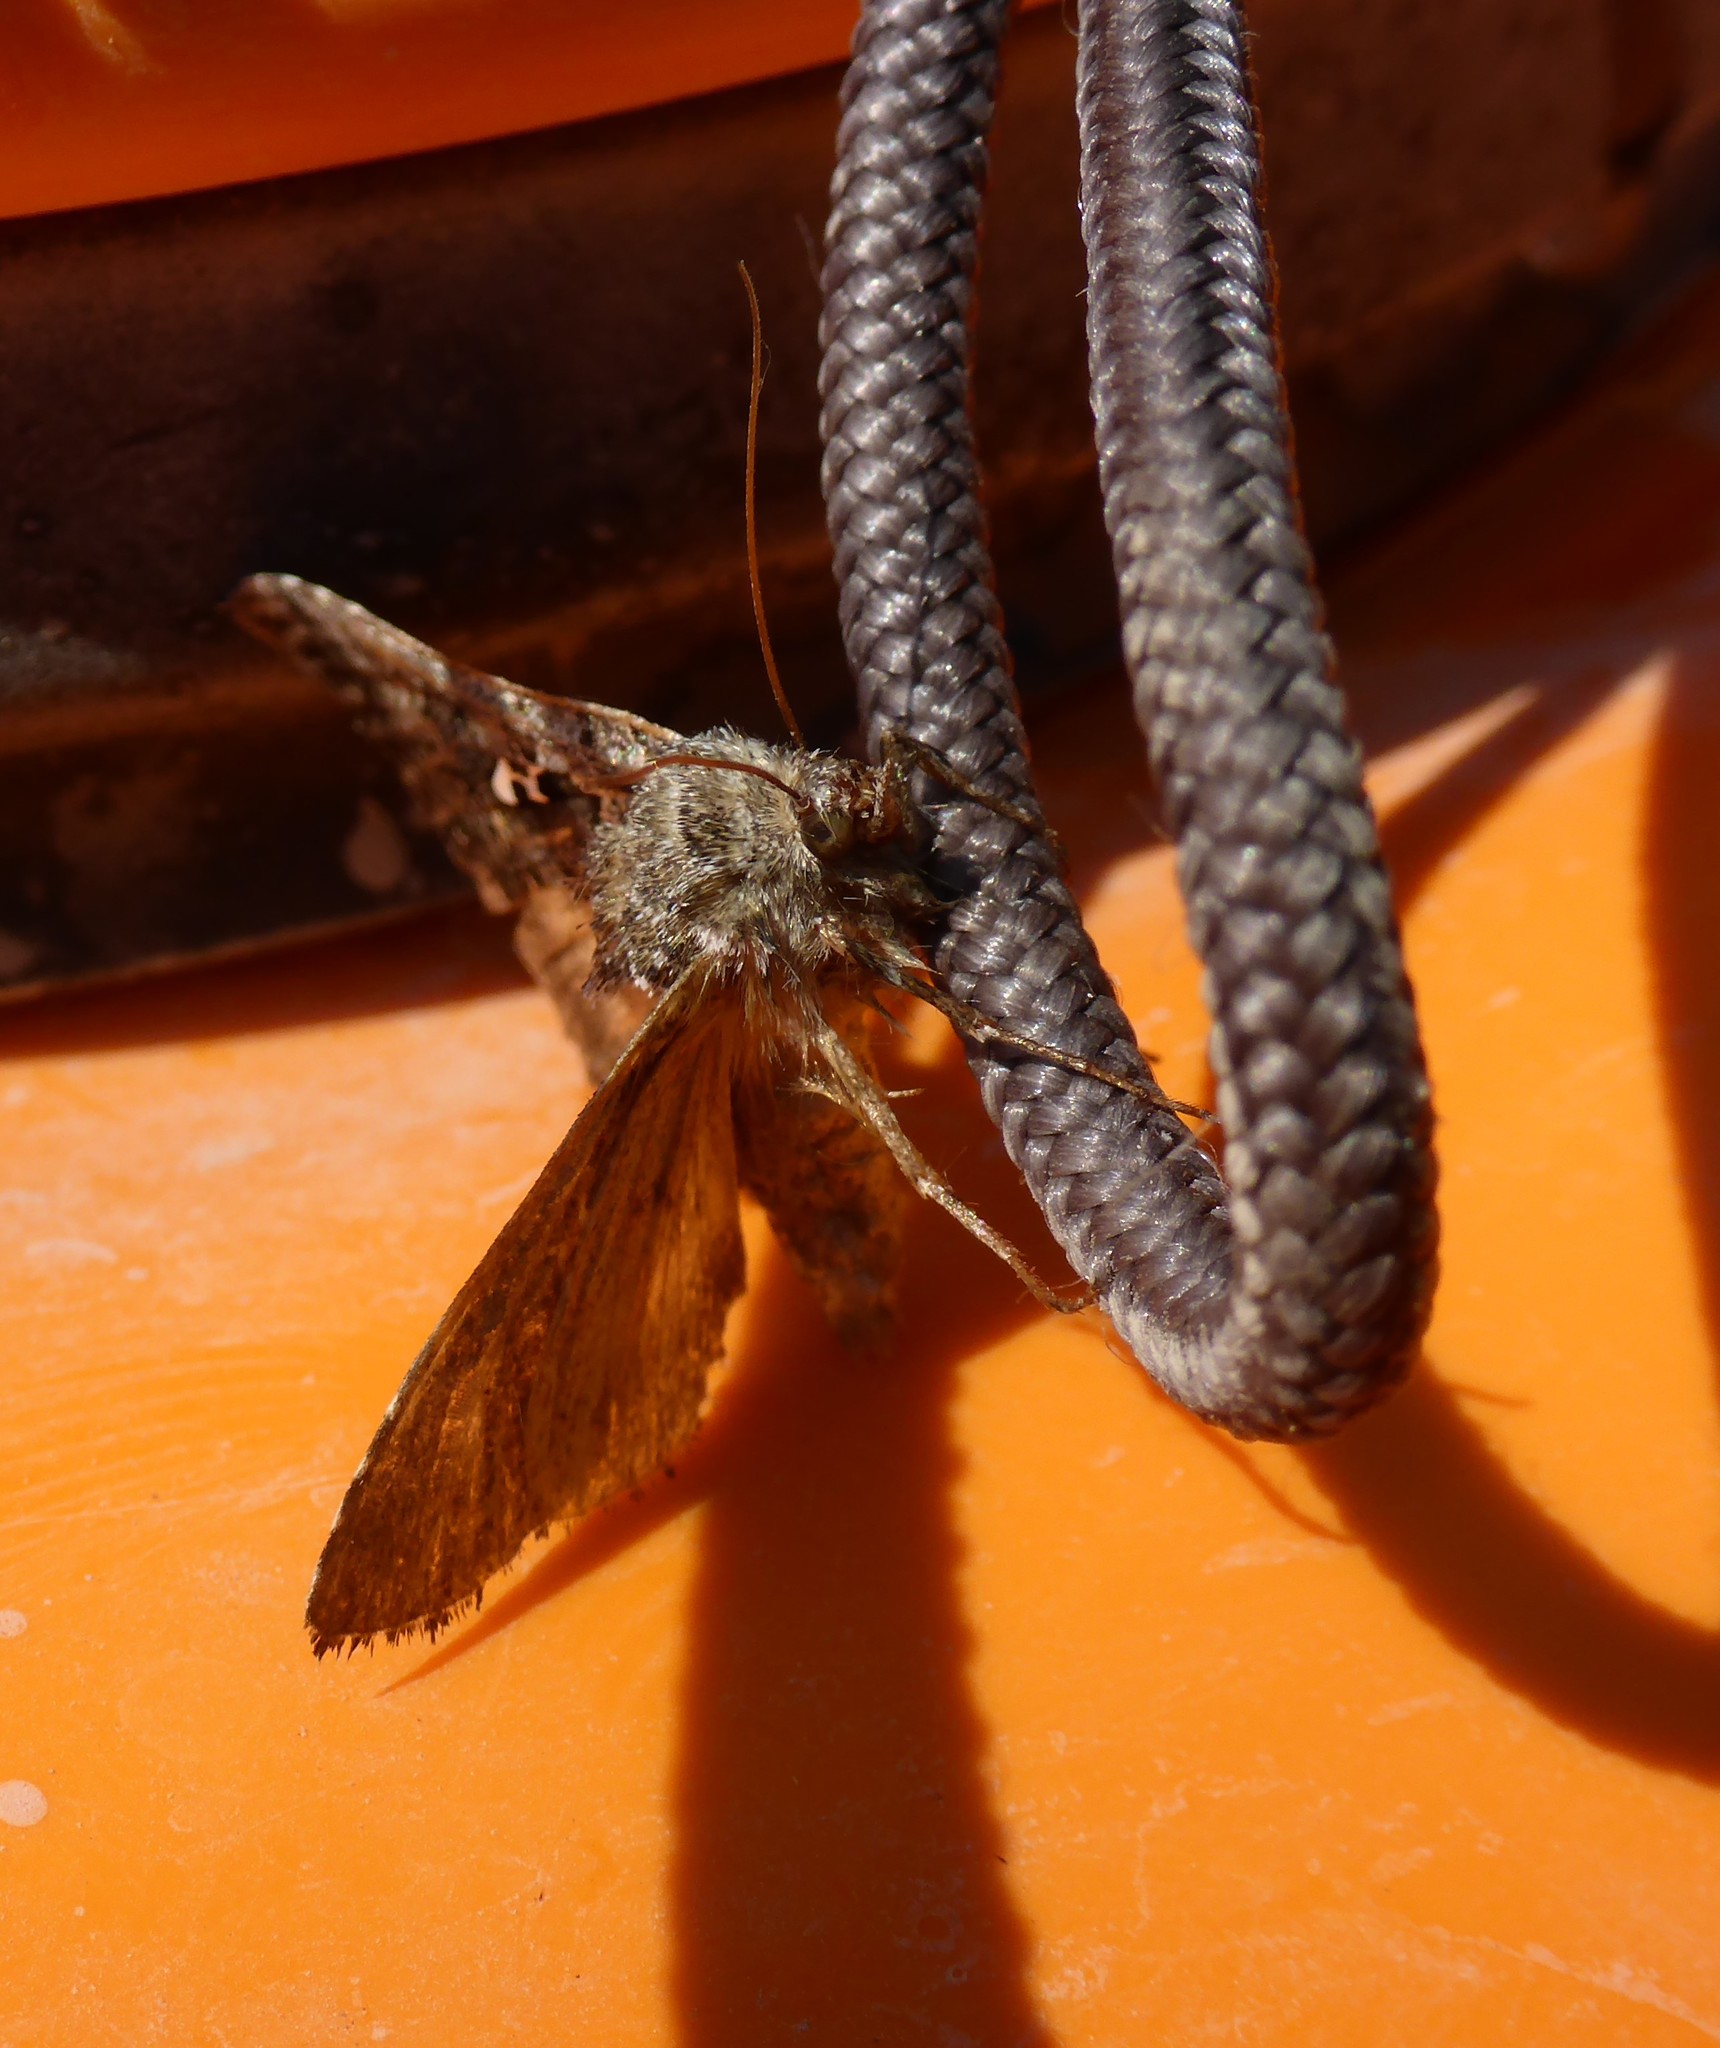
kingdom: Animalia
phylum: Arthropoda
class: Insecta
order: Lepidoptera
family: Noctuidae
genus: Autographa
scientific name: Autographa californica
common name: Alfalfa looper
